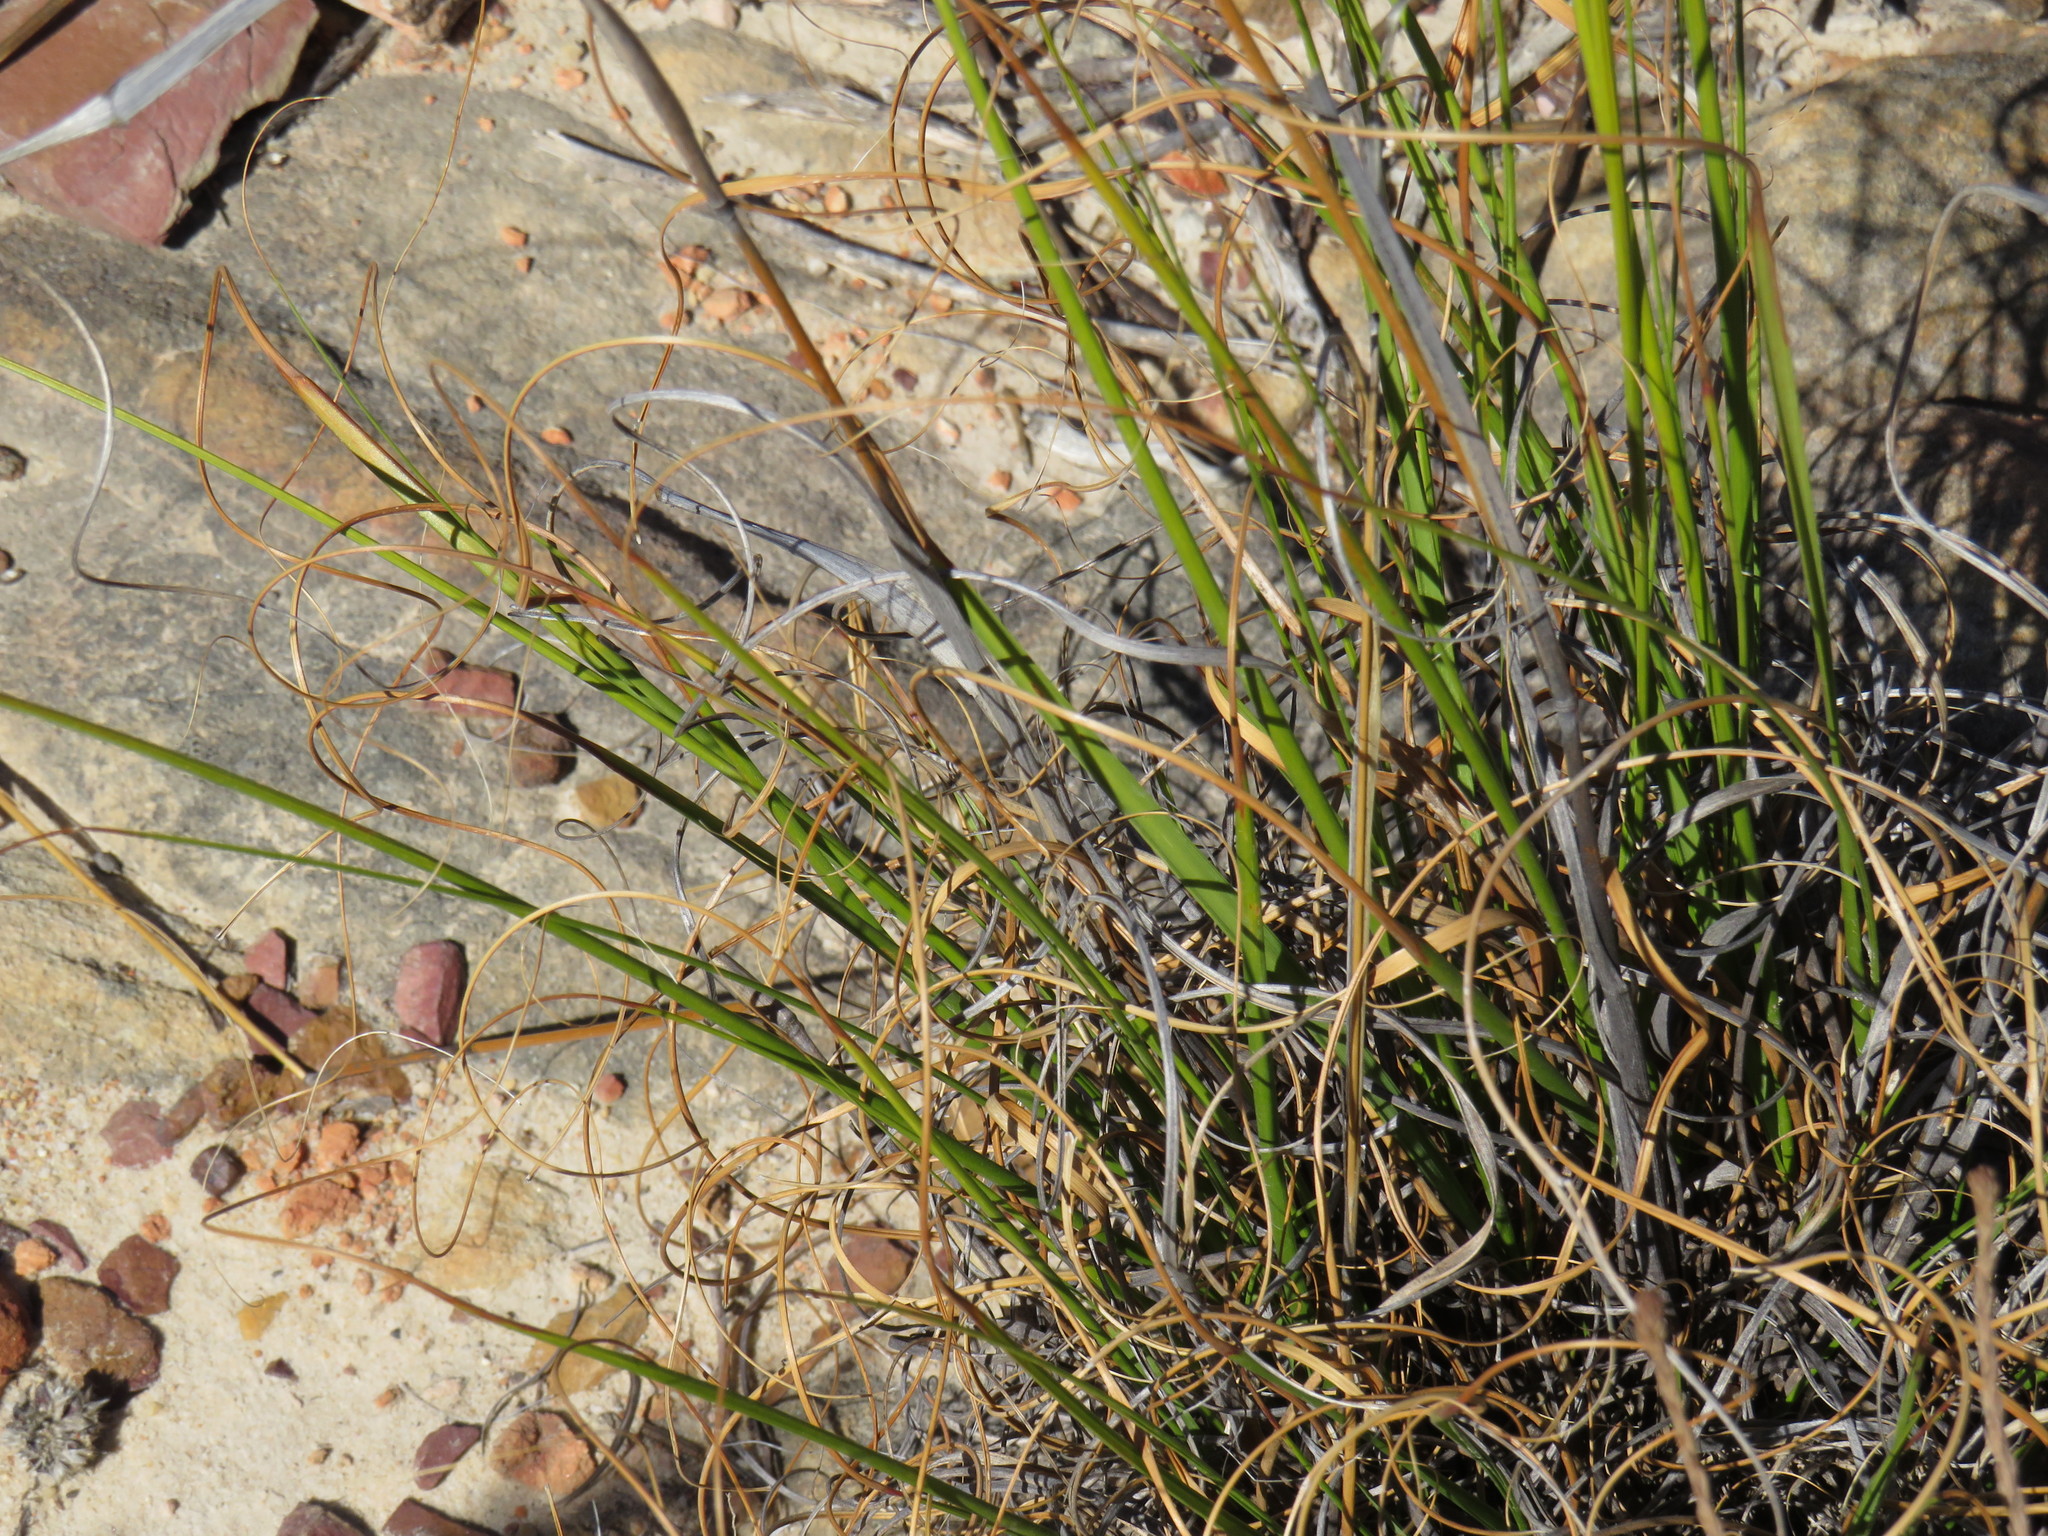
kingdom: Plantae
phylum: Tracheophyta
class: Liliopsida
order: Poales
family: Poaceae
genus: Pentameris
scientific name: Pentameris curvifolia
